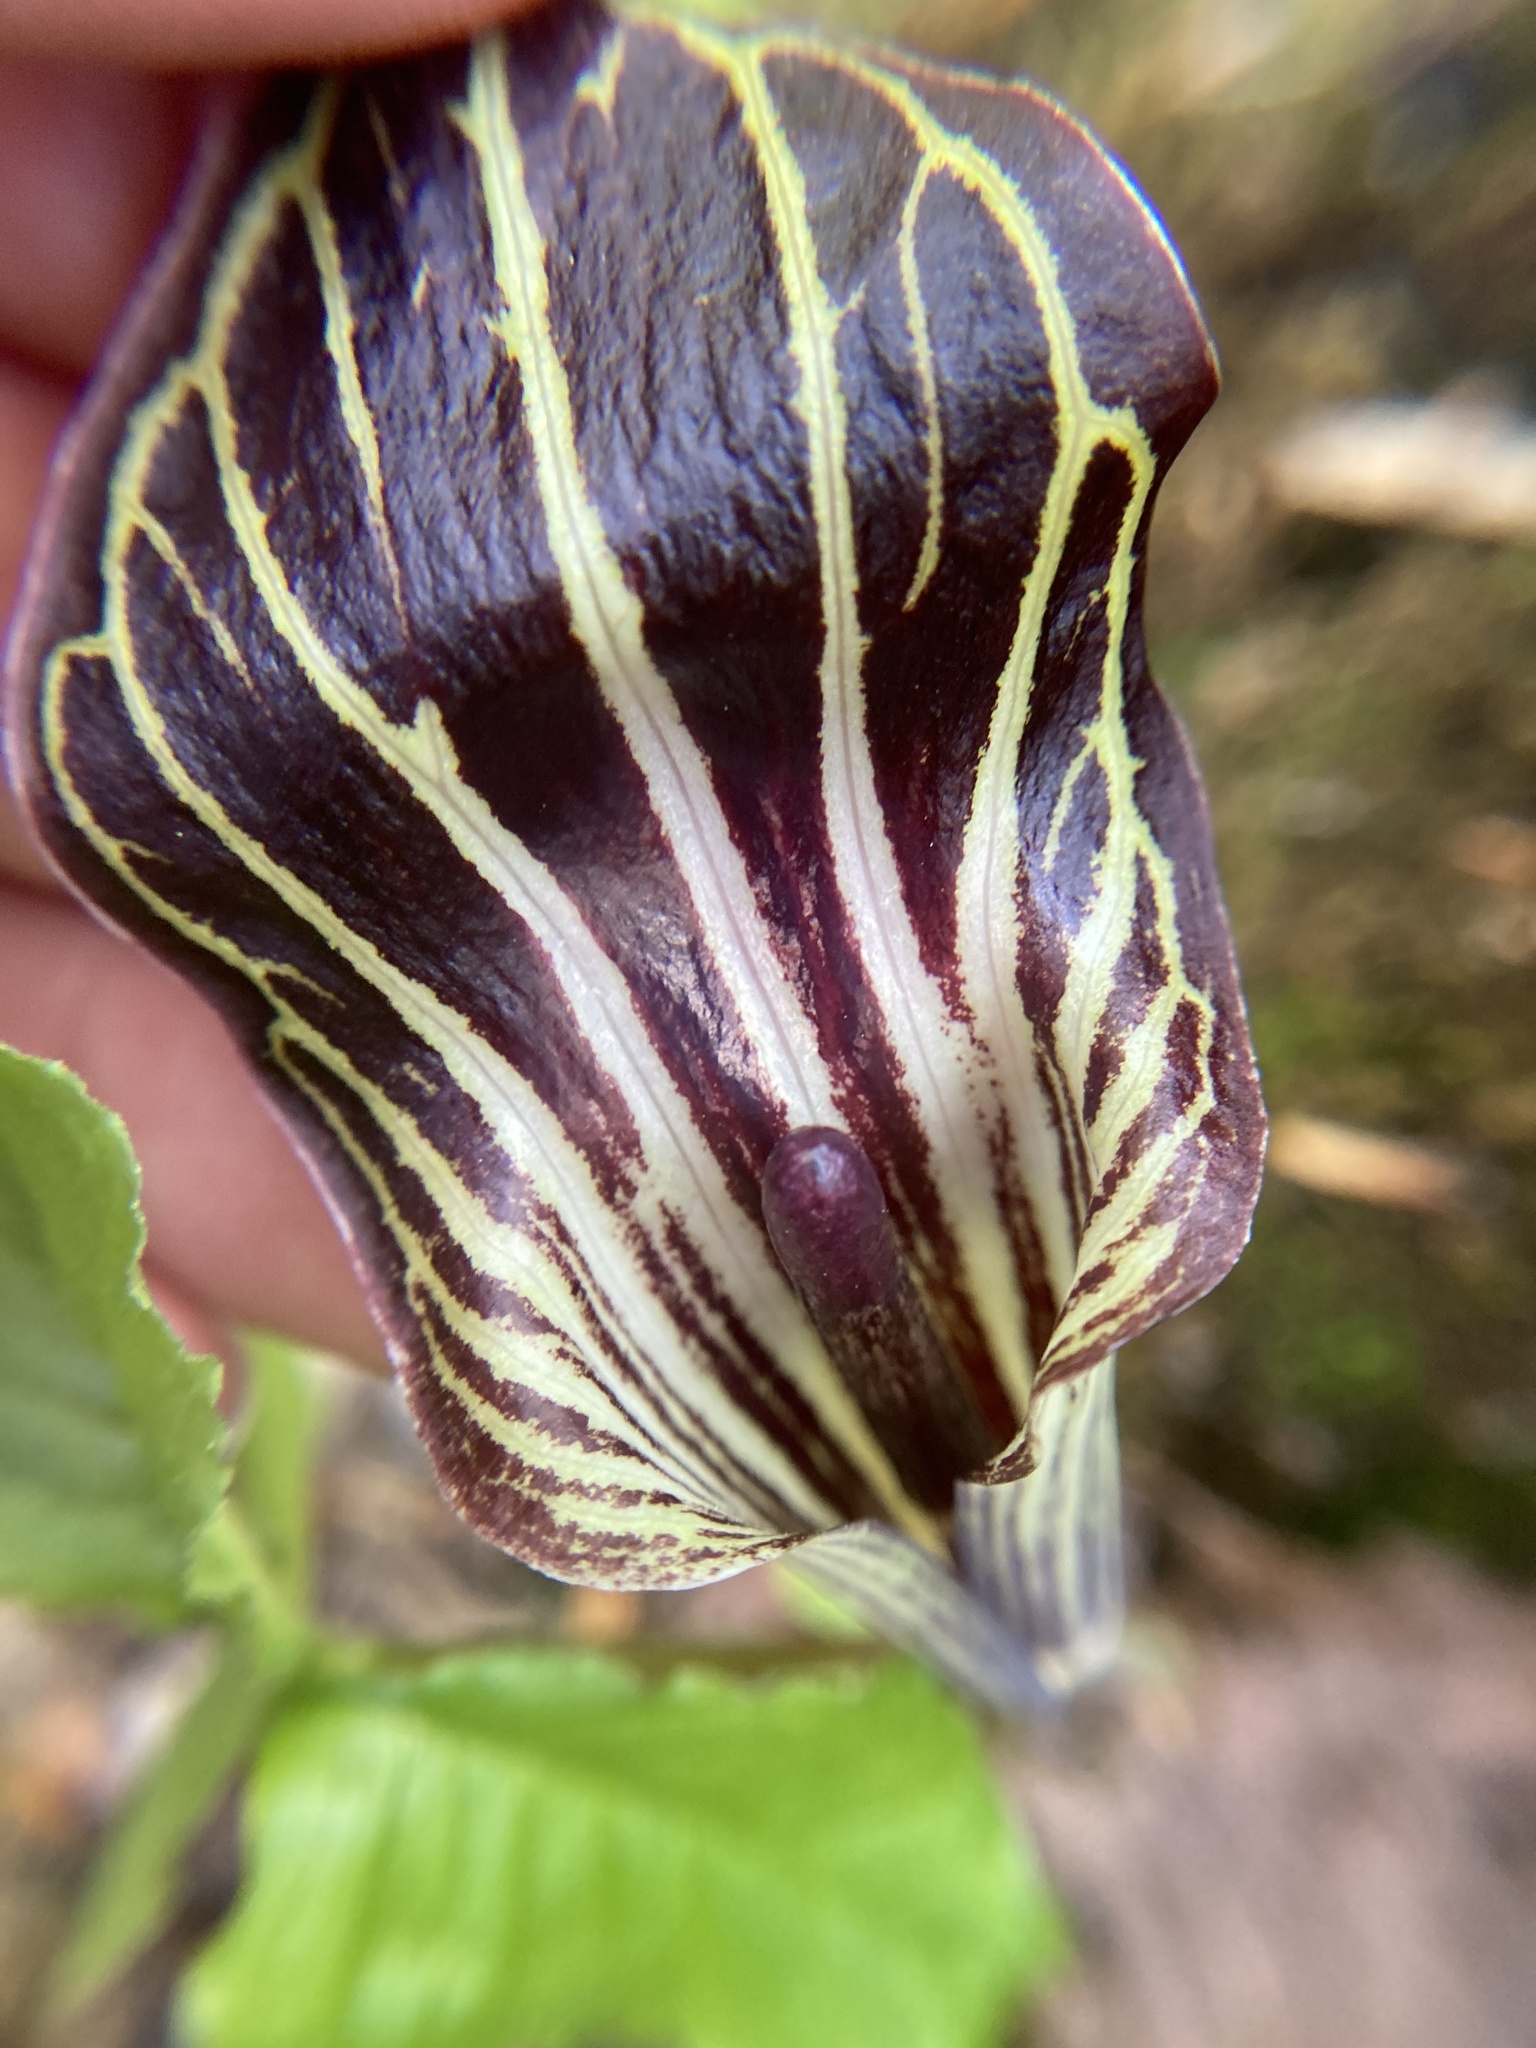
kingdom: Plantae
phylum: Tracheophyta
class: Liliopsida
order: Alismatales
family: Araceae
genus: Arisaema
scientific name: Arisaema triphyllum
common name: Jack-in-the-pulpit
